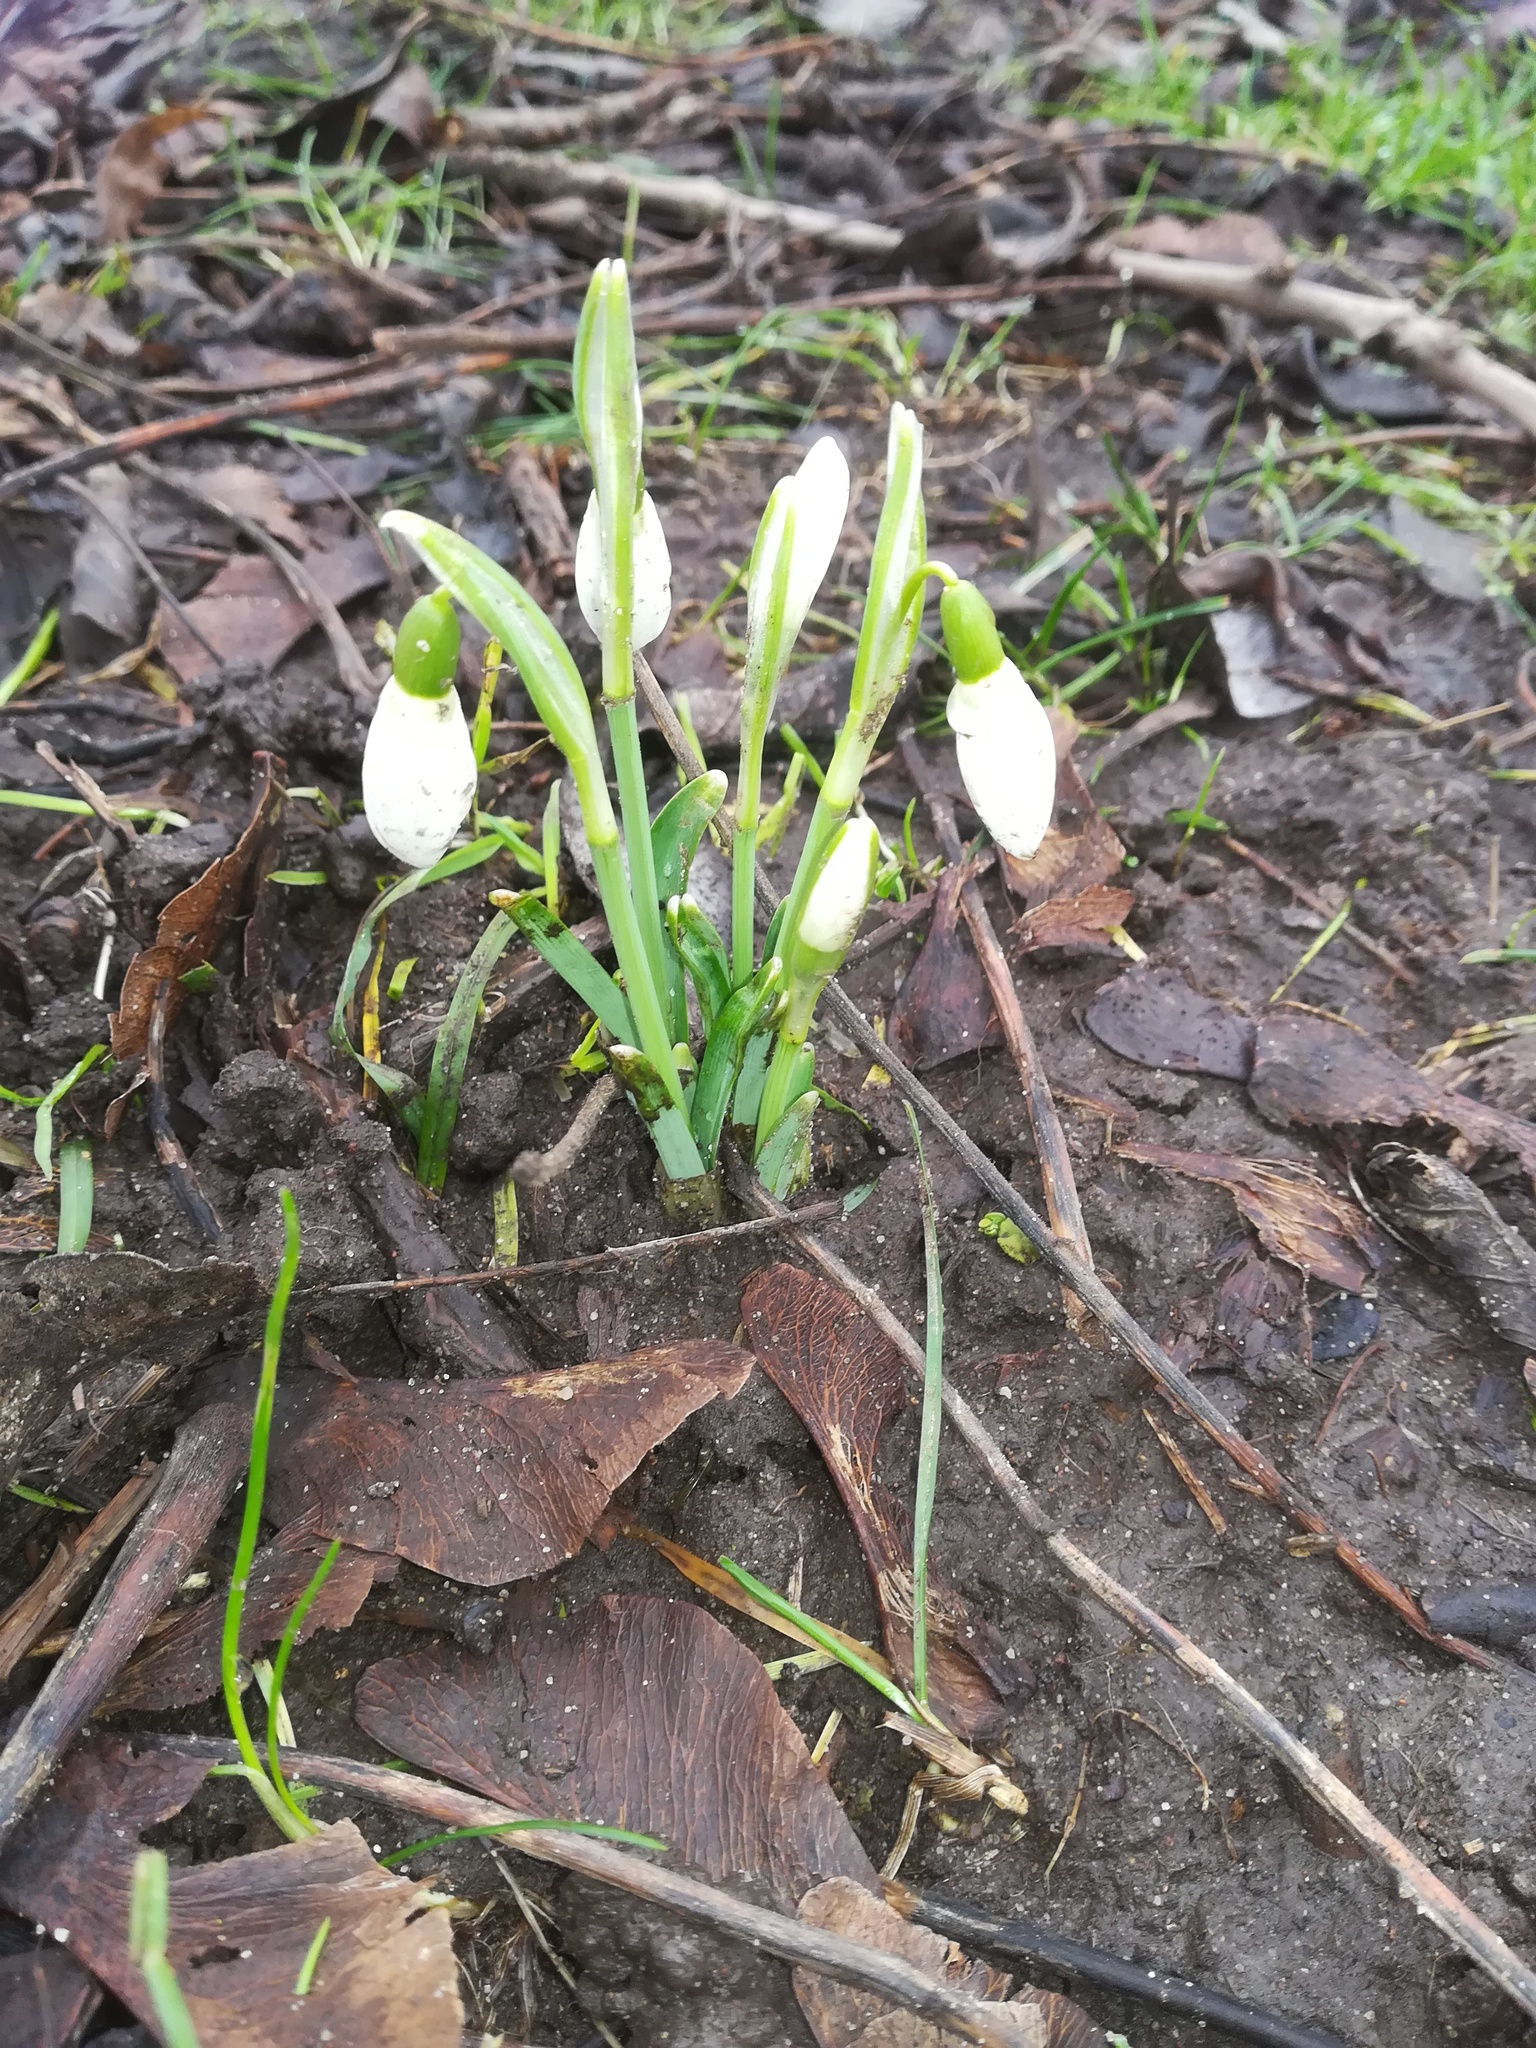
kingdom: Plantae
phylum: Tracheophyta
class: Liliopsida
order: Asparagales
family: Amaryllidaceae
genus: Galanthus
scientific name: Galanthus nivalis
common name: Snowdrop
